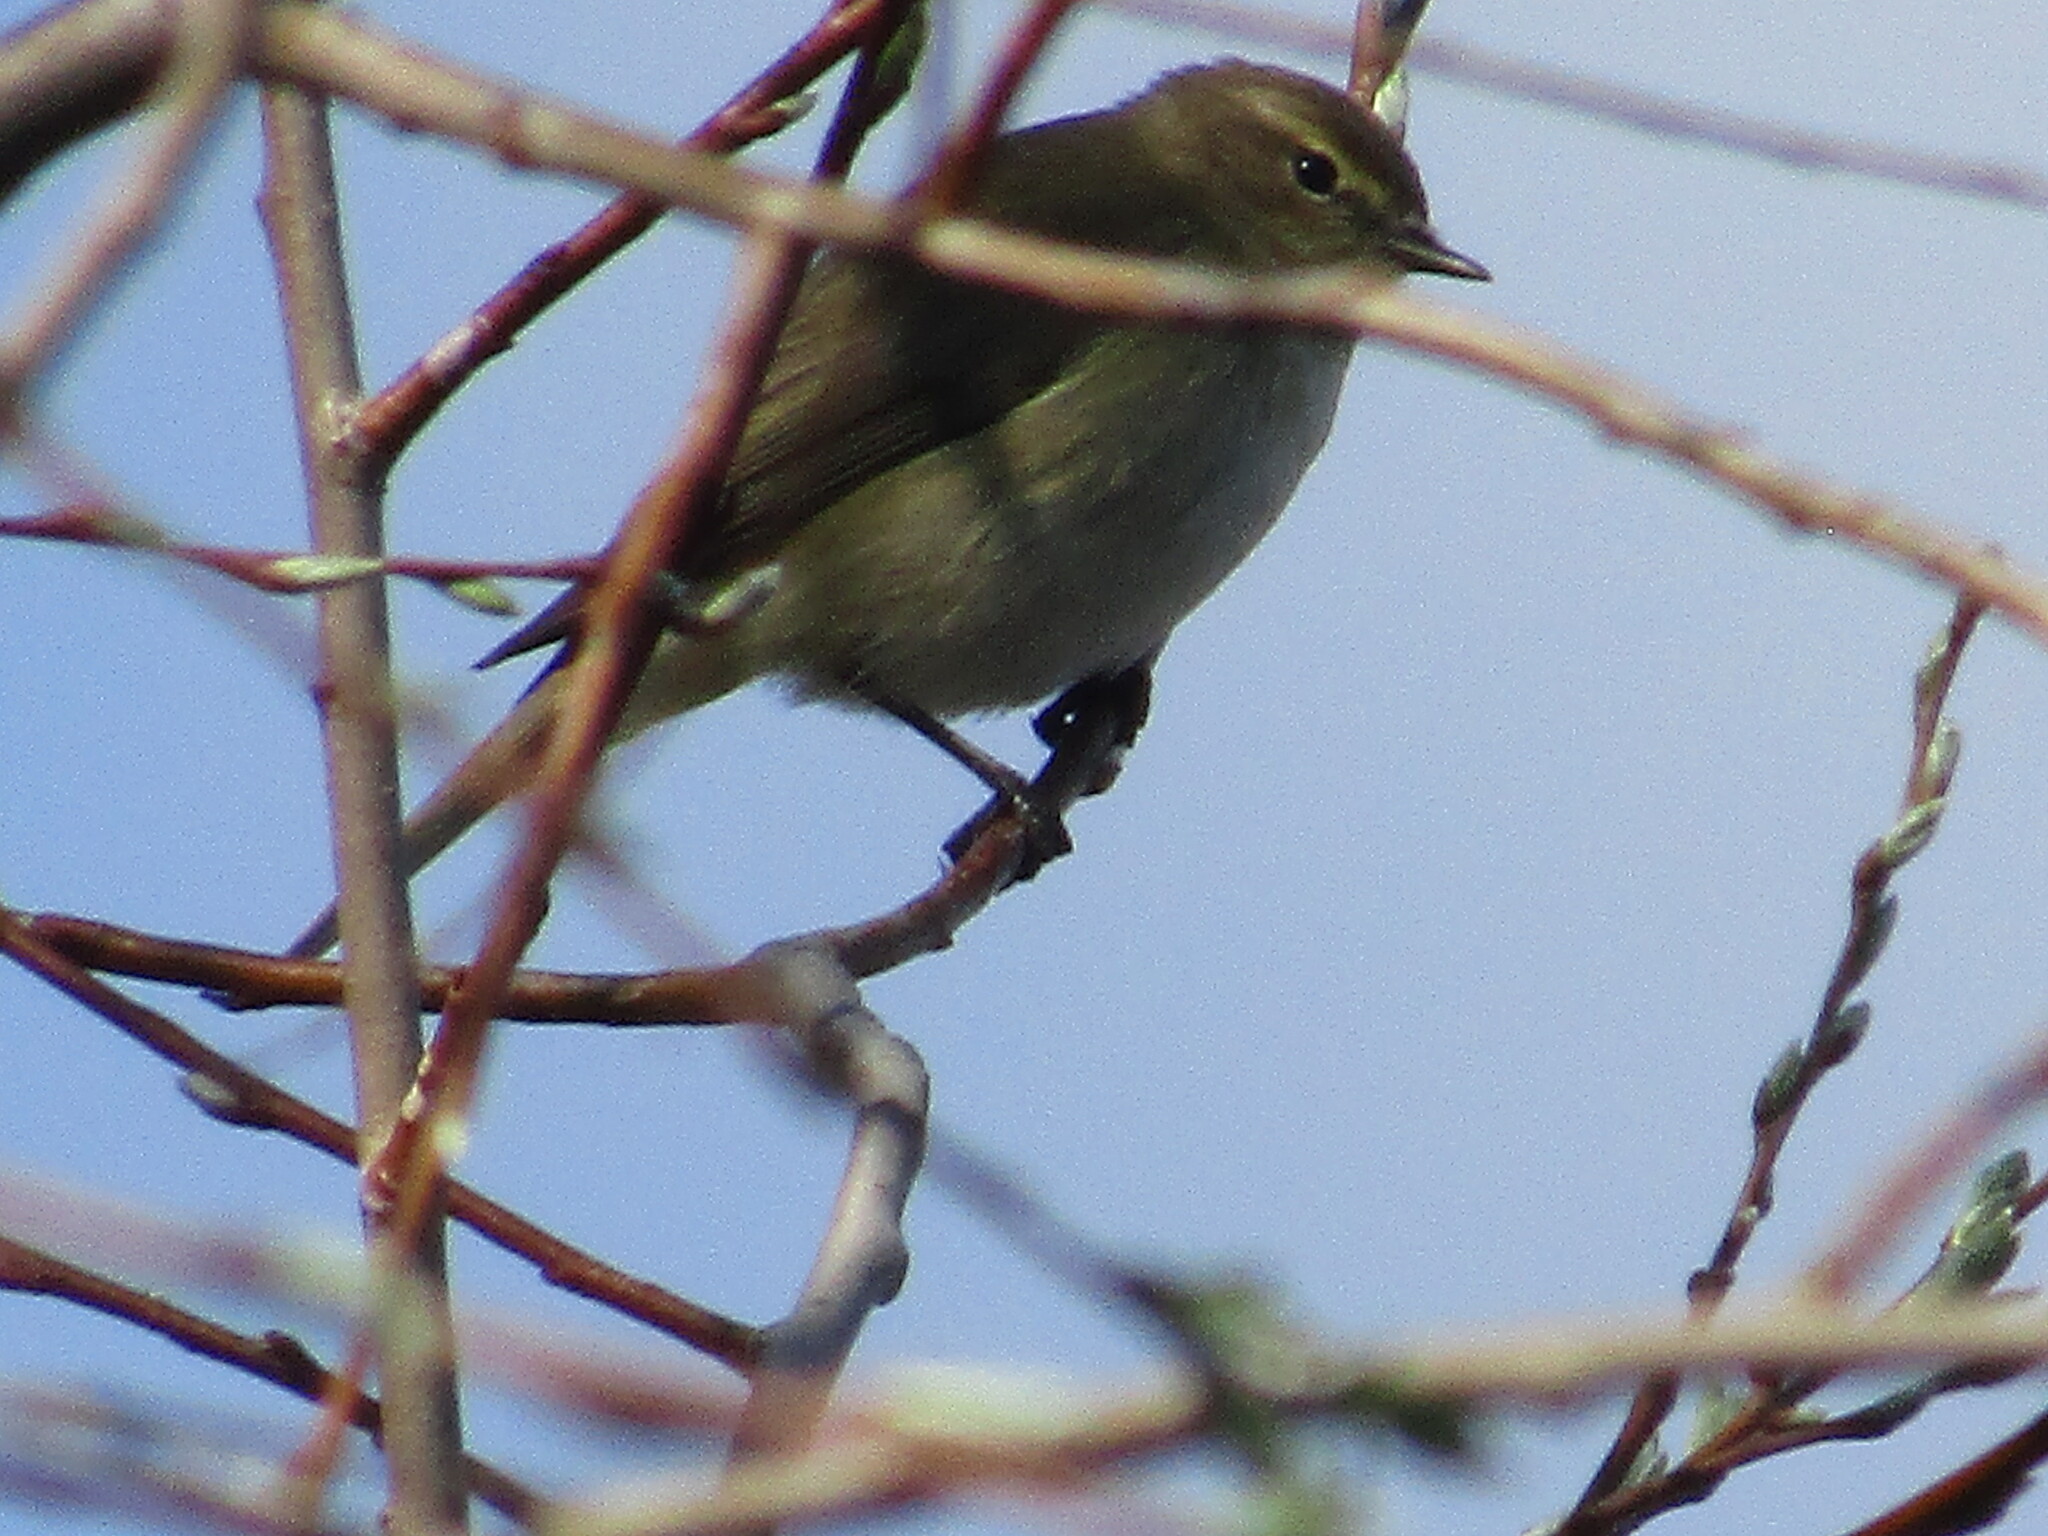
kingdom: Animalia
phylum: Chordata
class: Aves
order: Passeriformes
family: Phylloscopidae
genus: Phylloscopus
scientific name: Phylloscopus collybita
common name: Common chiffchaff
